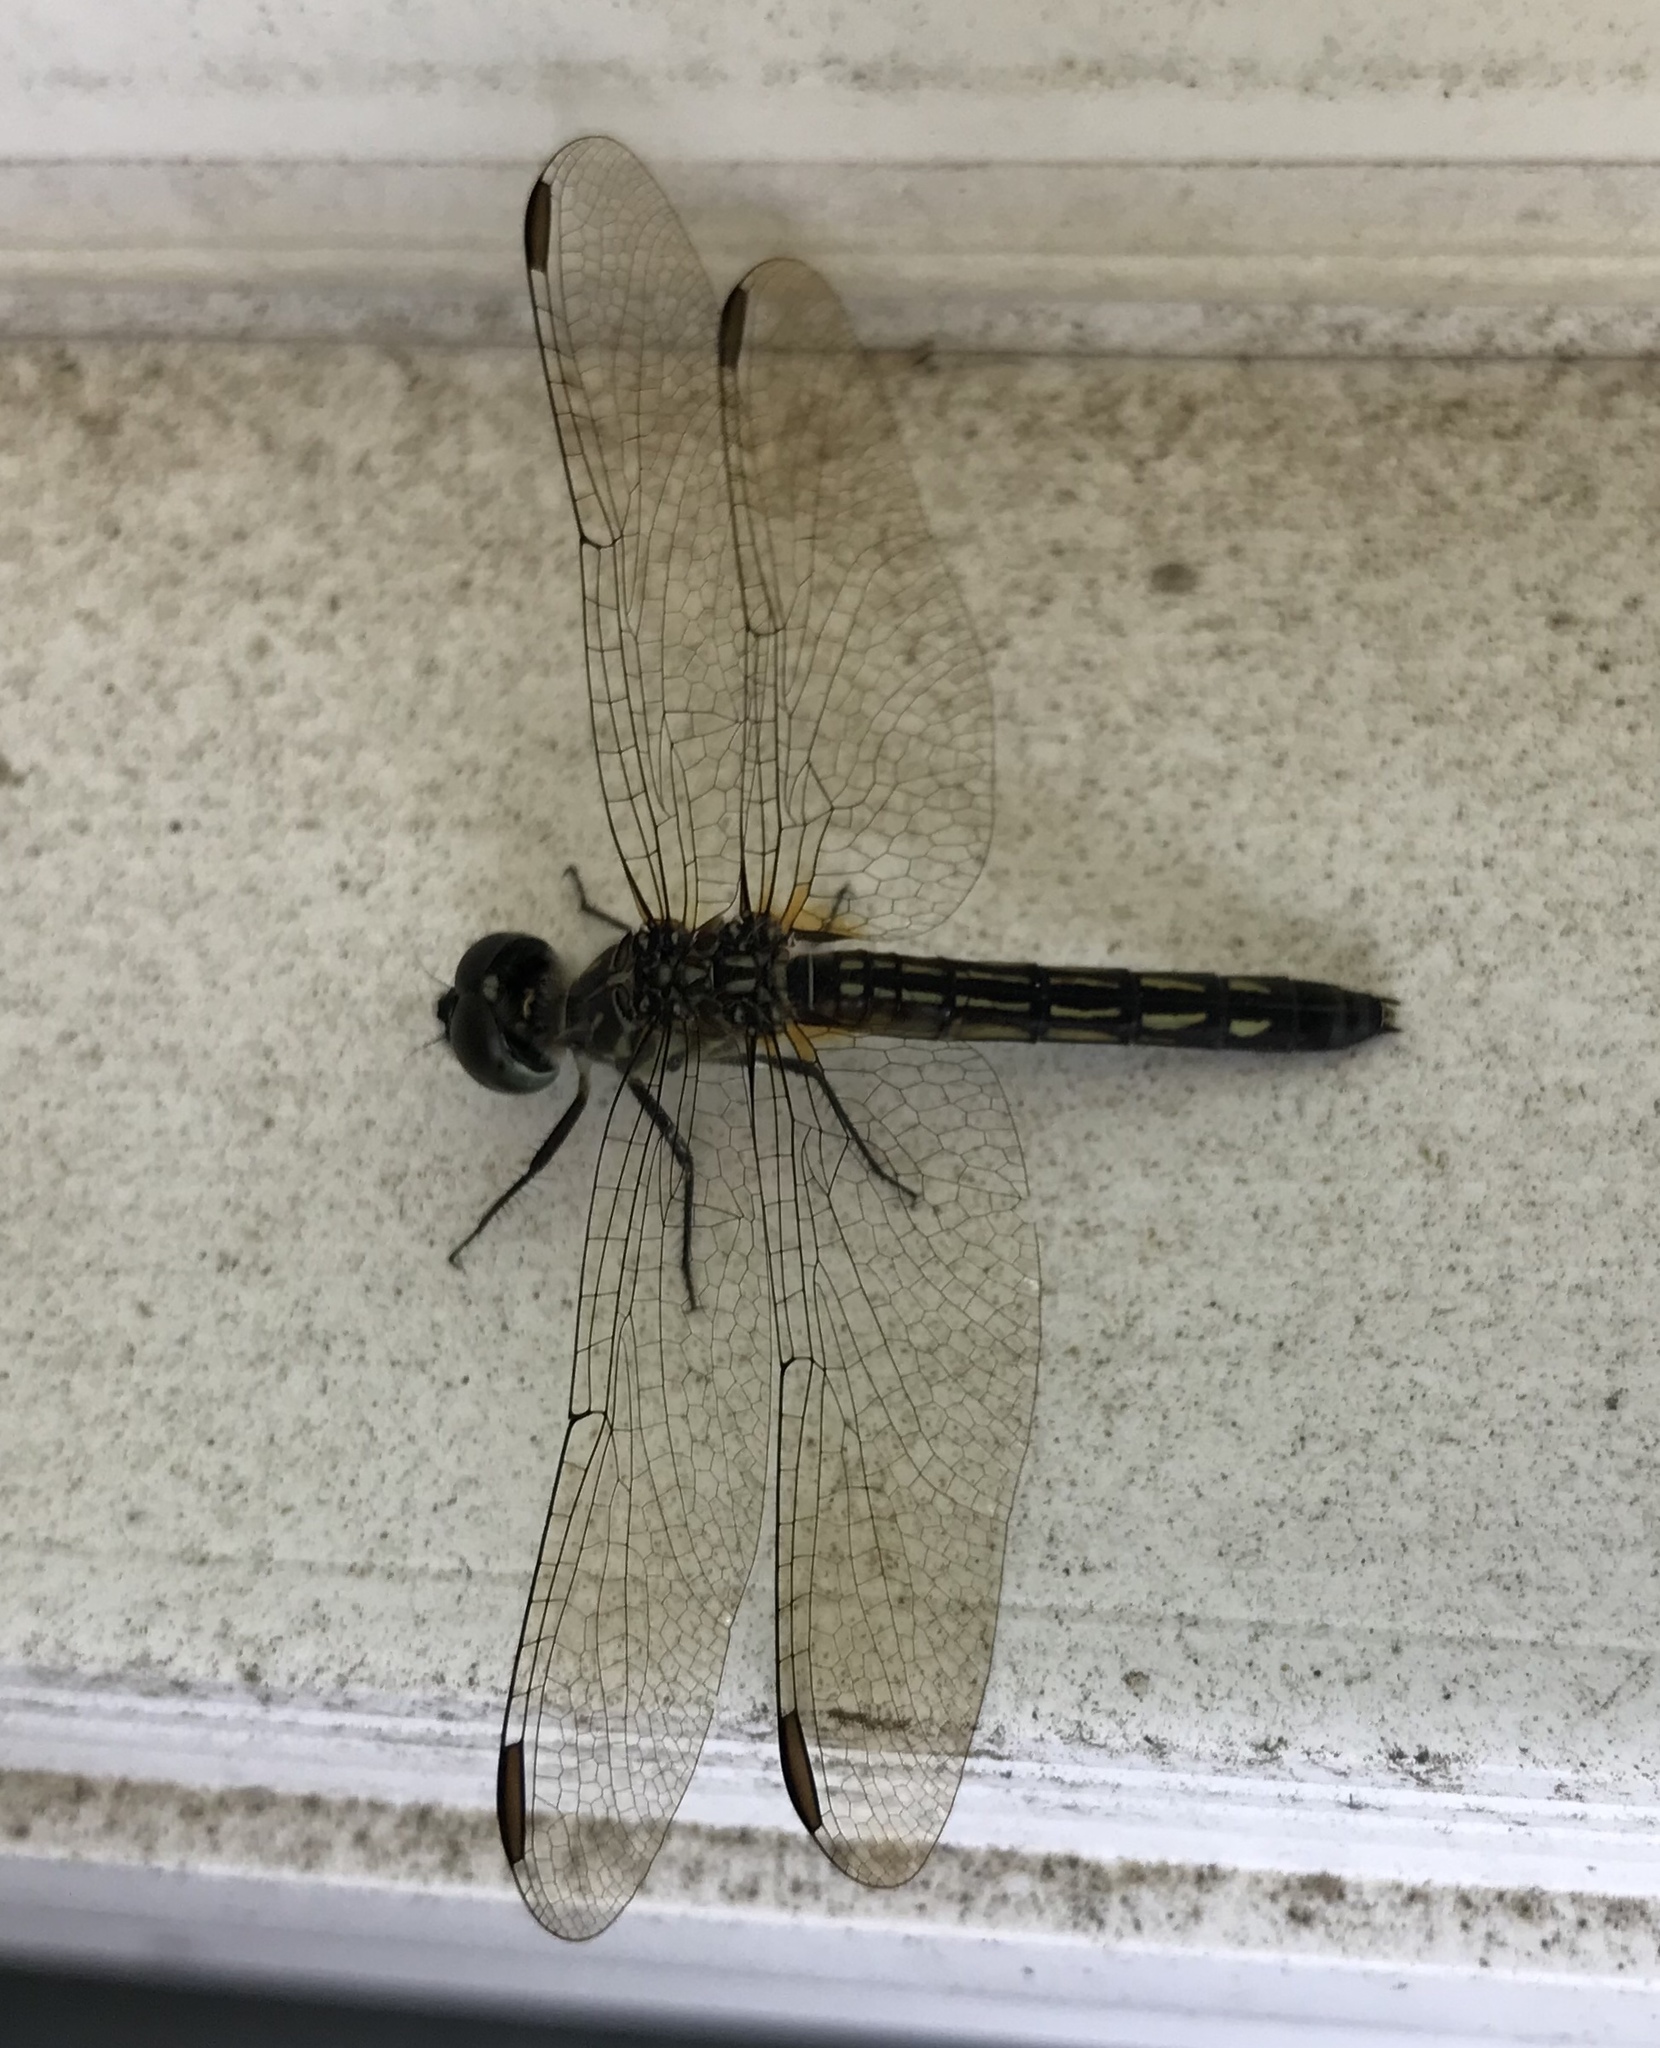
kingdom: Animalia
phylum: Arthropoda
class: Insecta
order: Odonata
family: Libellulidae
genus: Pachydiplax
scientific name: Pachydiplax longipennis
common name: Blue dasher
